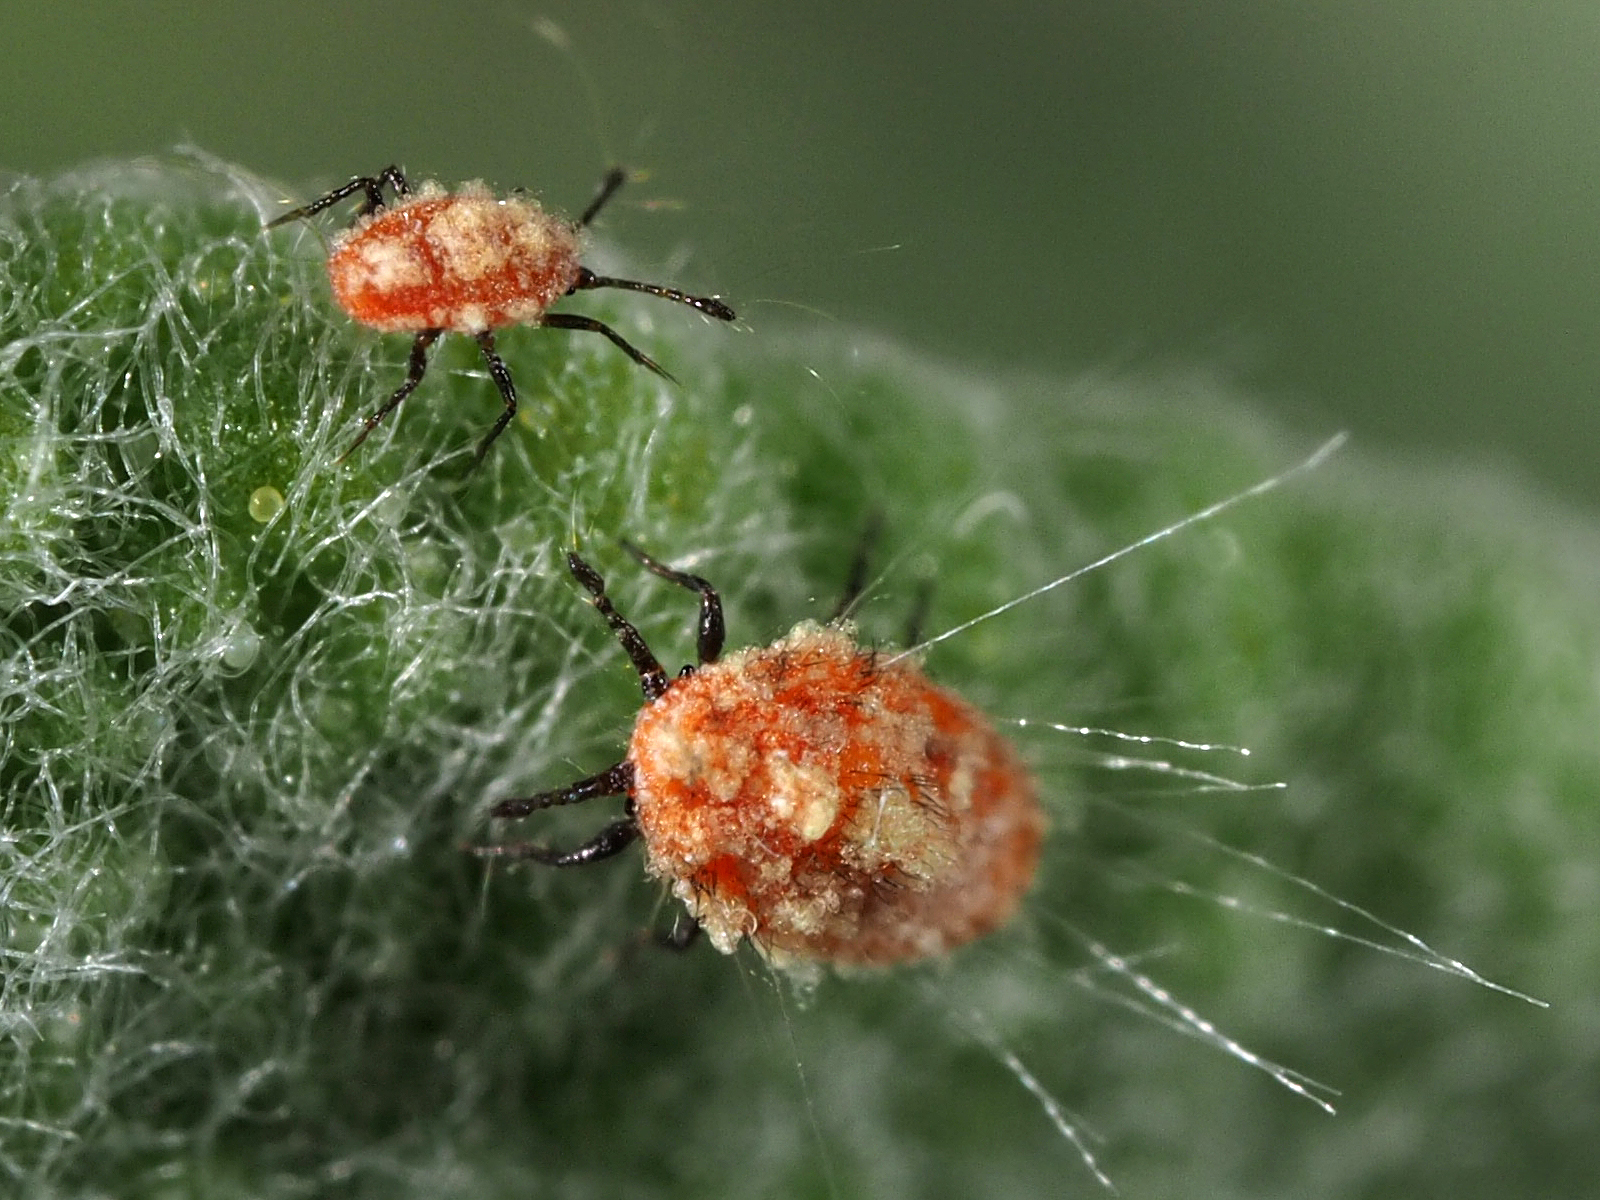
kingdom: Animalia
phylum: Arthropoda
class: Insecta
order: Hemiptera
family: Margarodidae
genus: Icerya
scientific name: Icerya purchasi
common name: Cottony cushion scale
